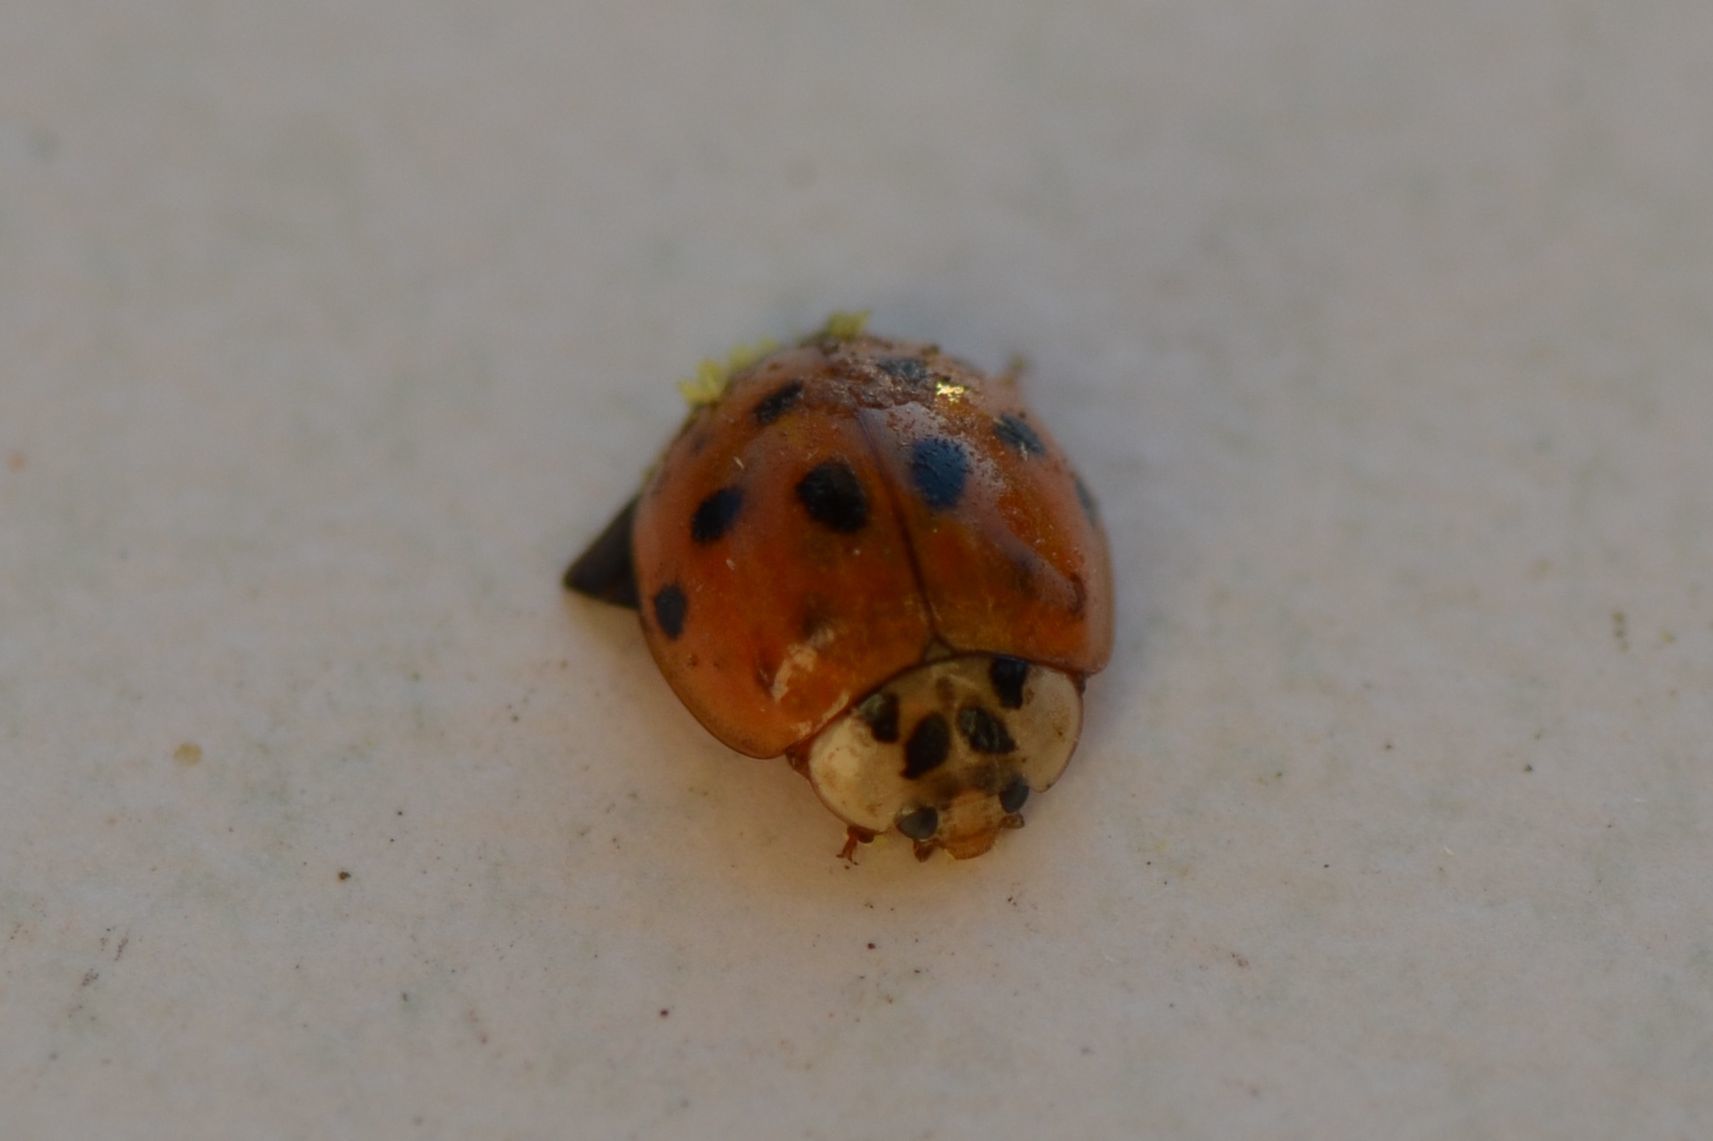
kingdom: Animalia
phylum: Arthropoda
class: Insecta
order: Coleoptera
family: Coccinellidae
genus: Harmonia
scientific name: Harmonia axyridis
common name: Harlequin ladybird
